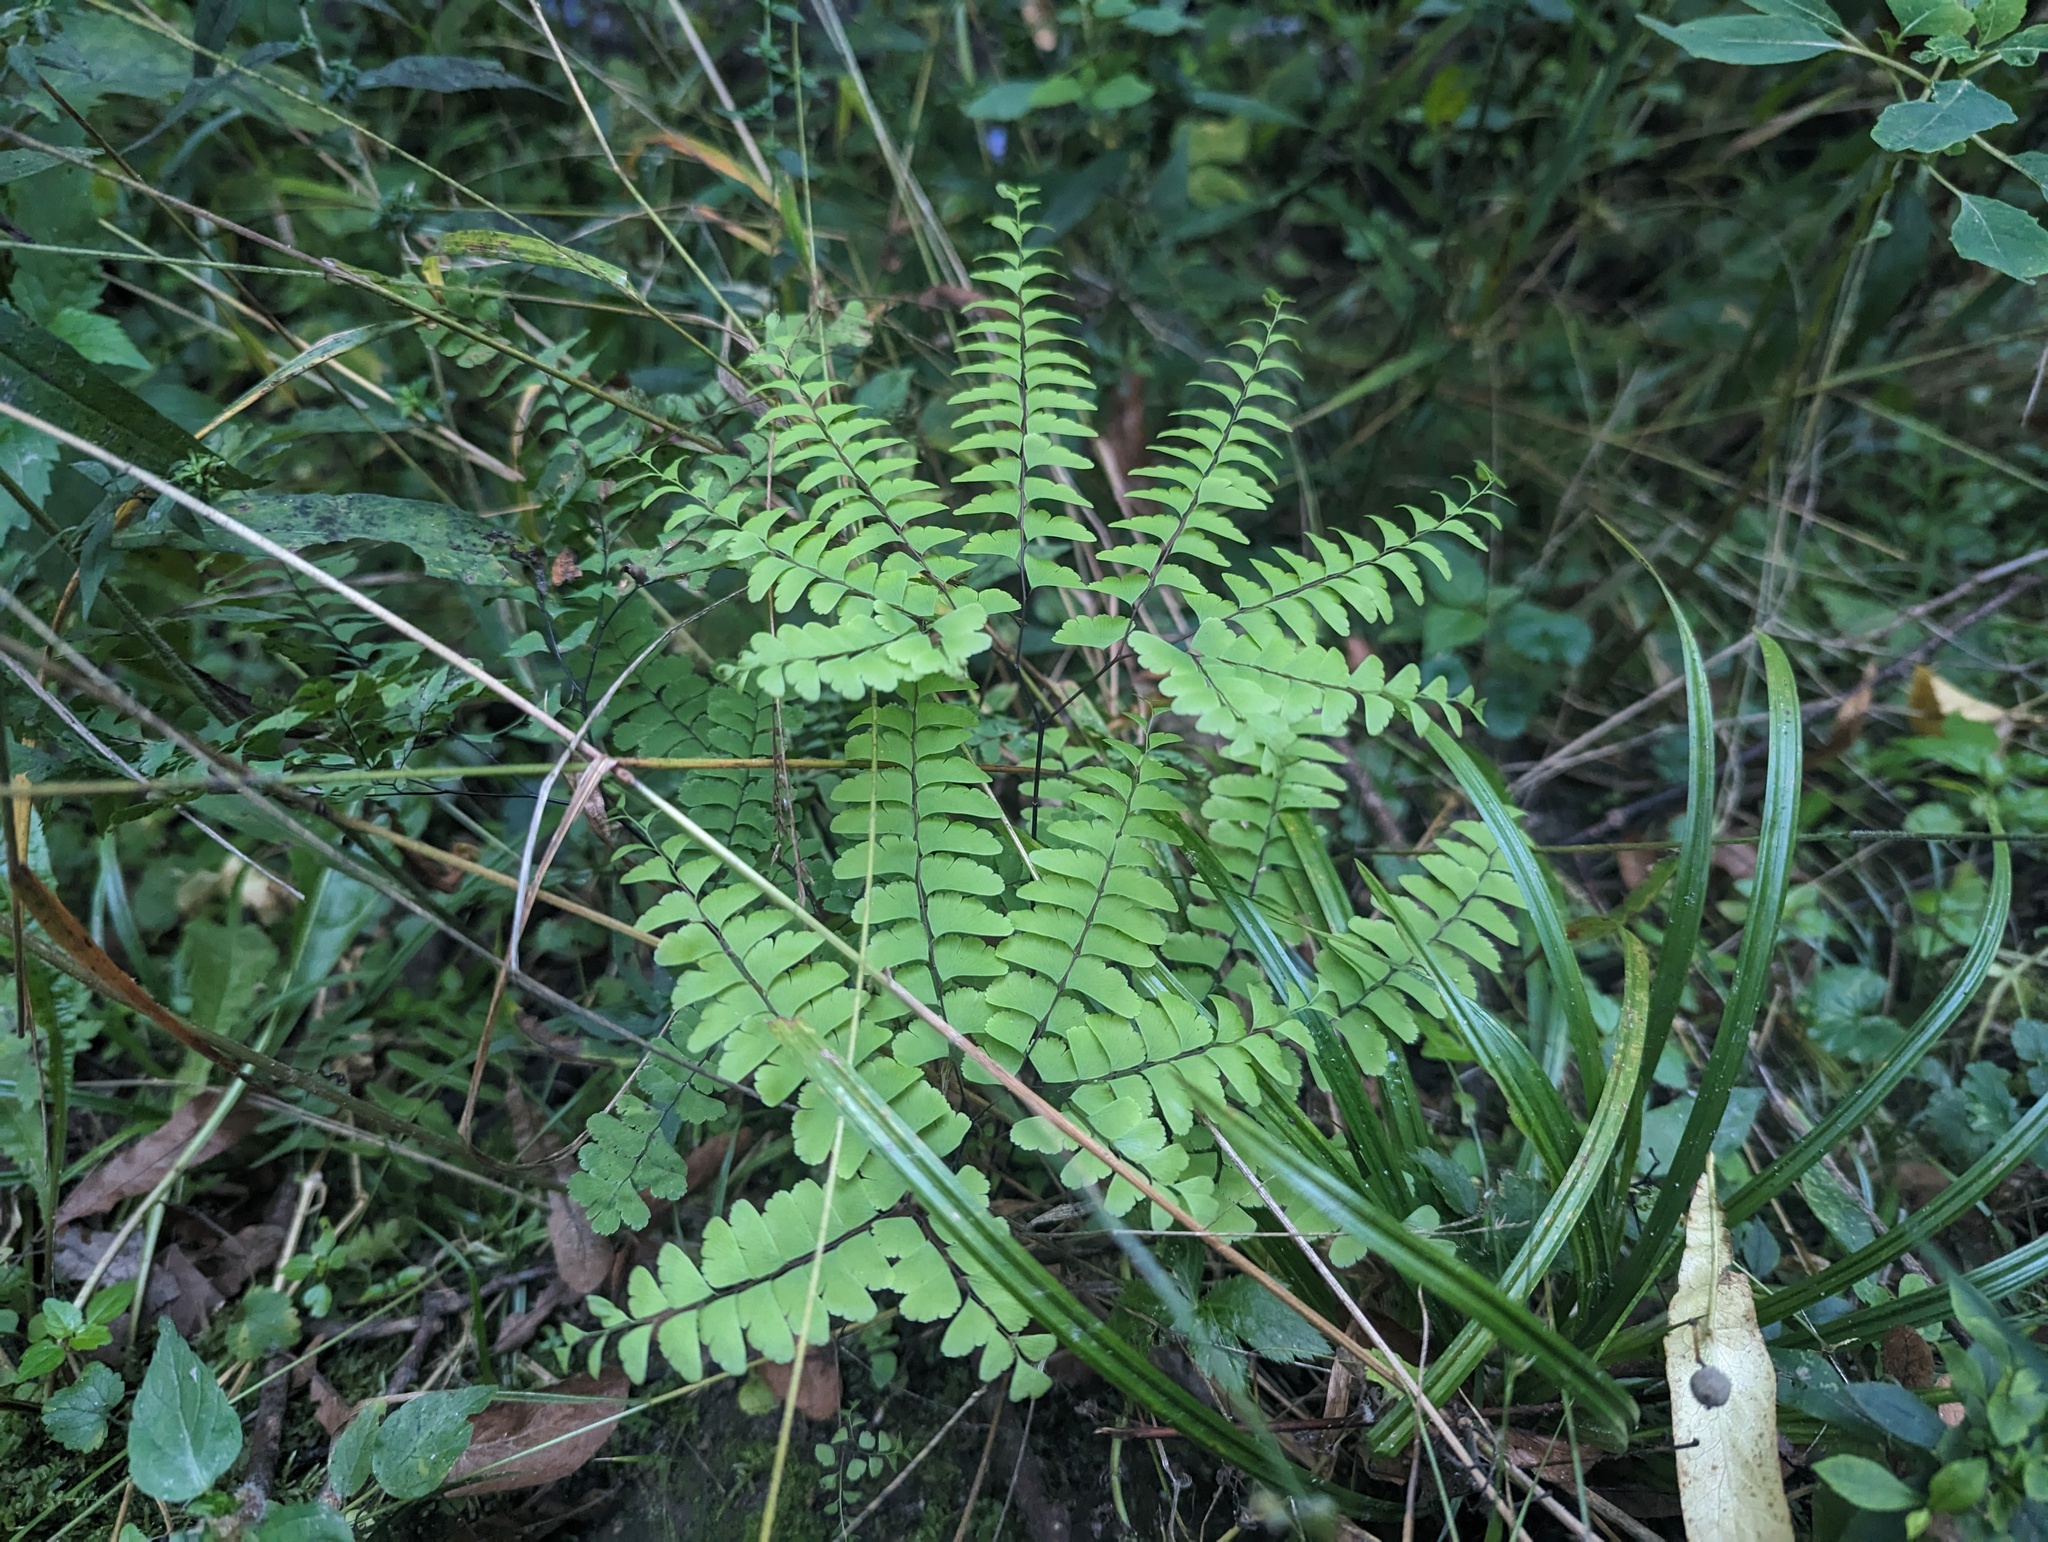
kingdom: Plantae
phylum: Tracheophyta
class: Polypodiopsida
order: Polypodiales
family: Pteridaceae
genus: Adiantum
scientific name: Adiantum pedatum
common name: Five-finger fern
